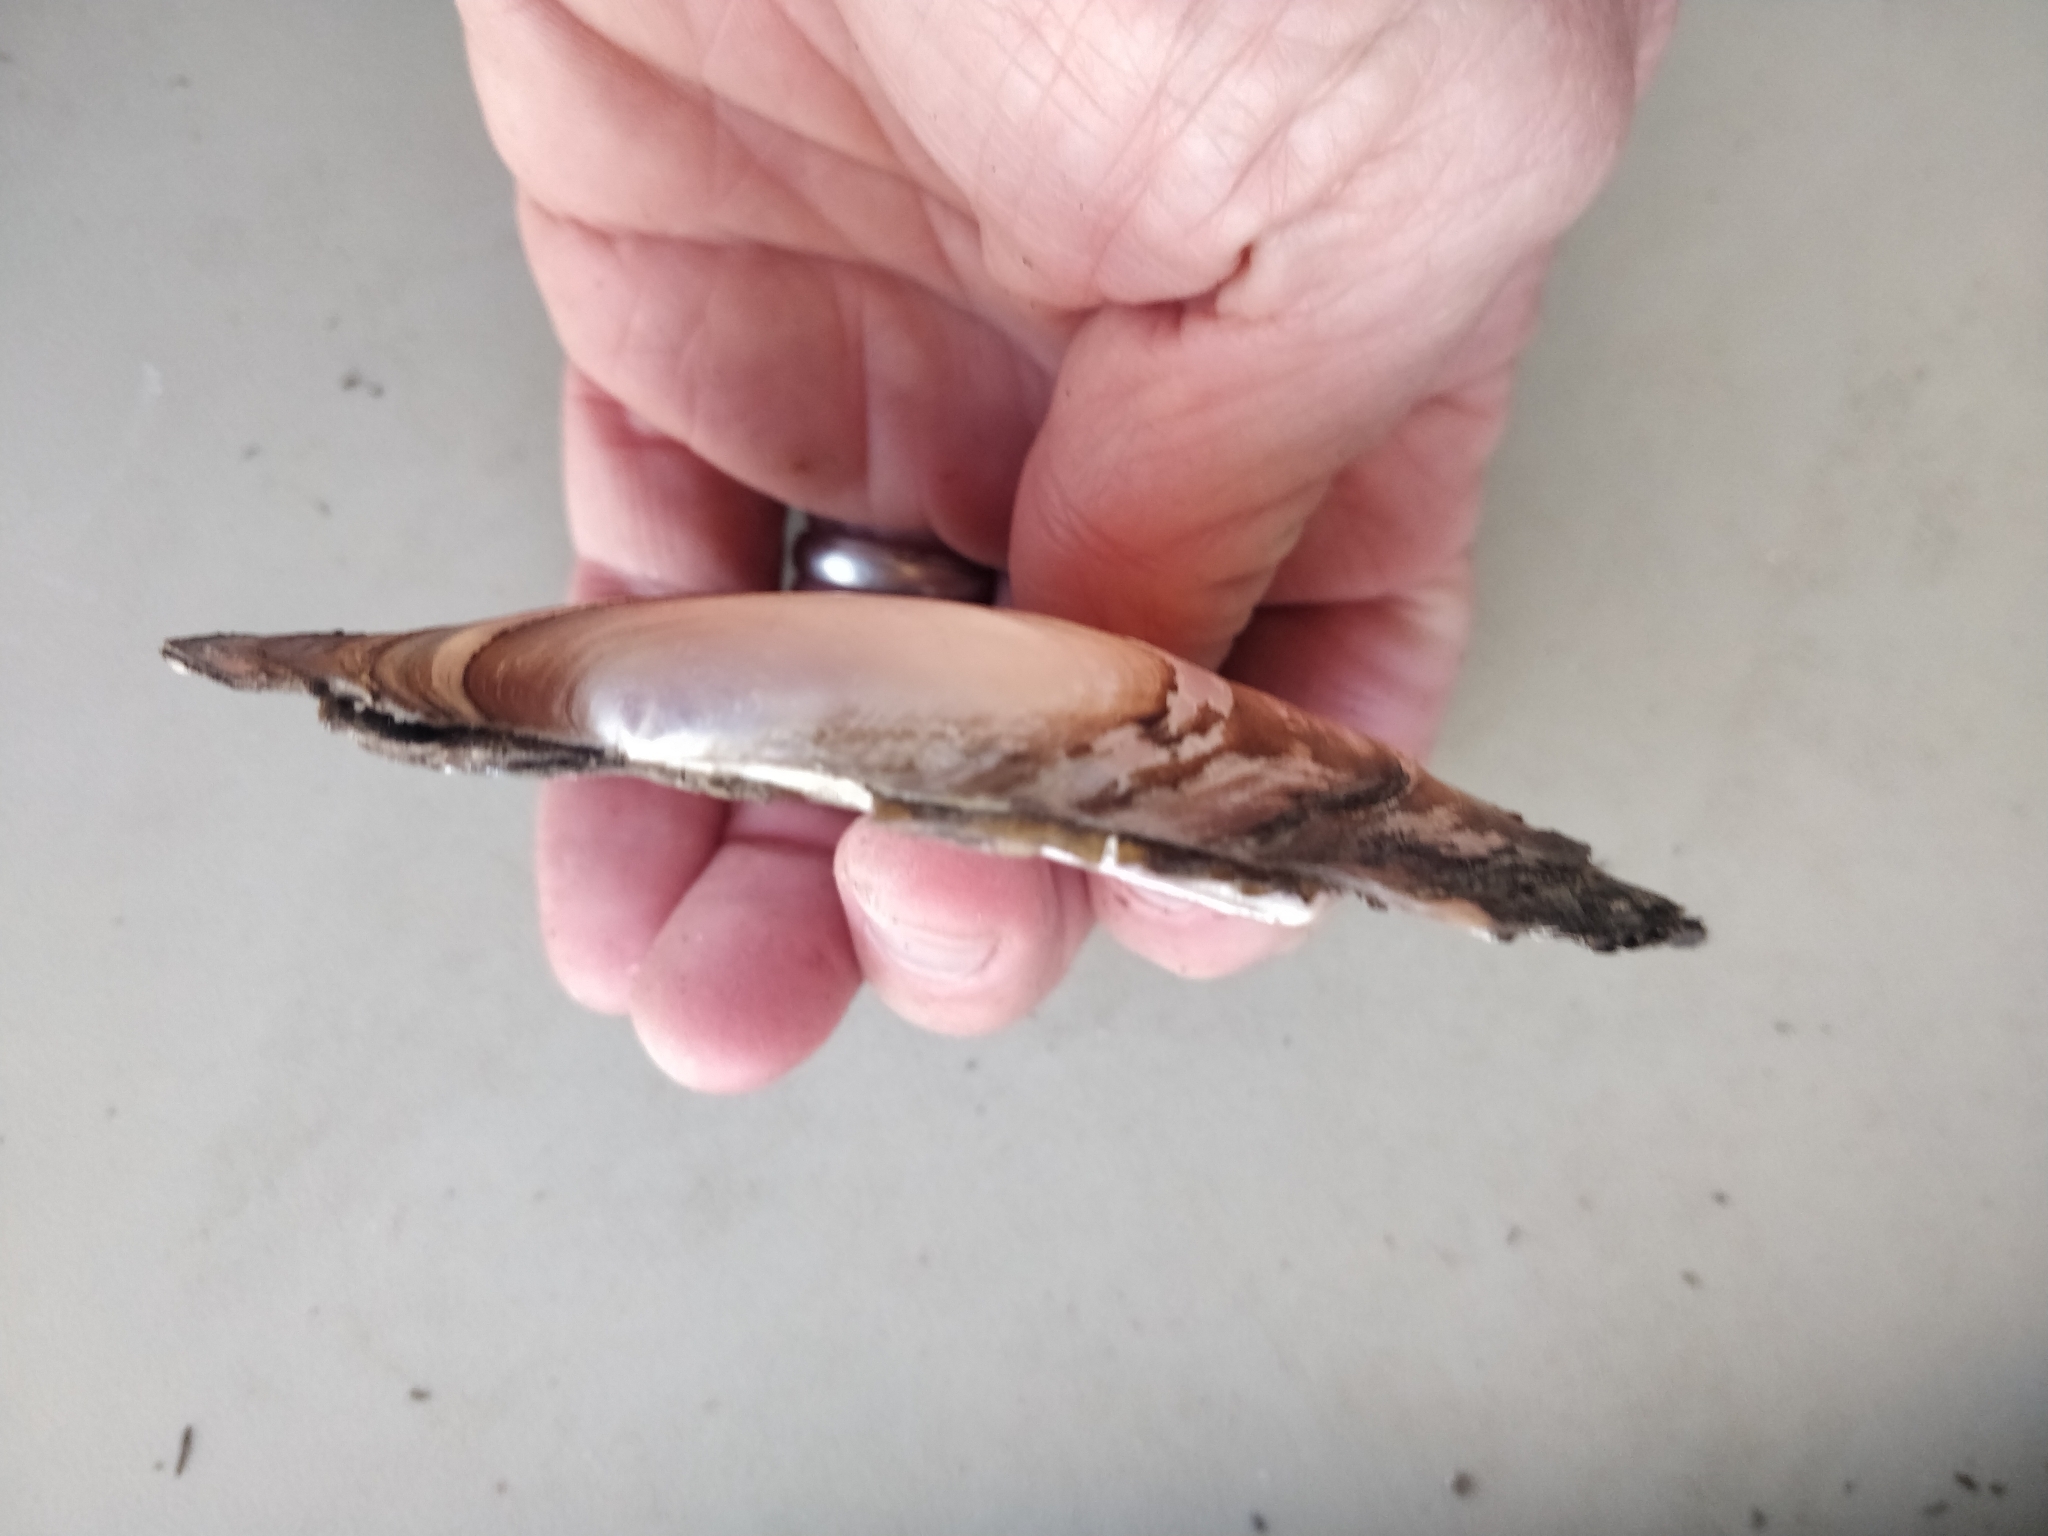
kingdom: Animalia
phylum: Mollusca
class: Bivalvia
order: Unionida
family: Unionidae
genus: Potamilus
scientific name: Potamilus ohiensis
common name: Pink papershell
